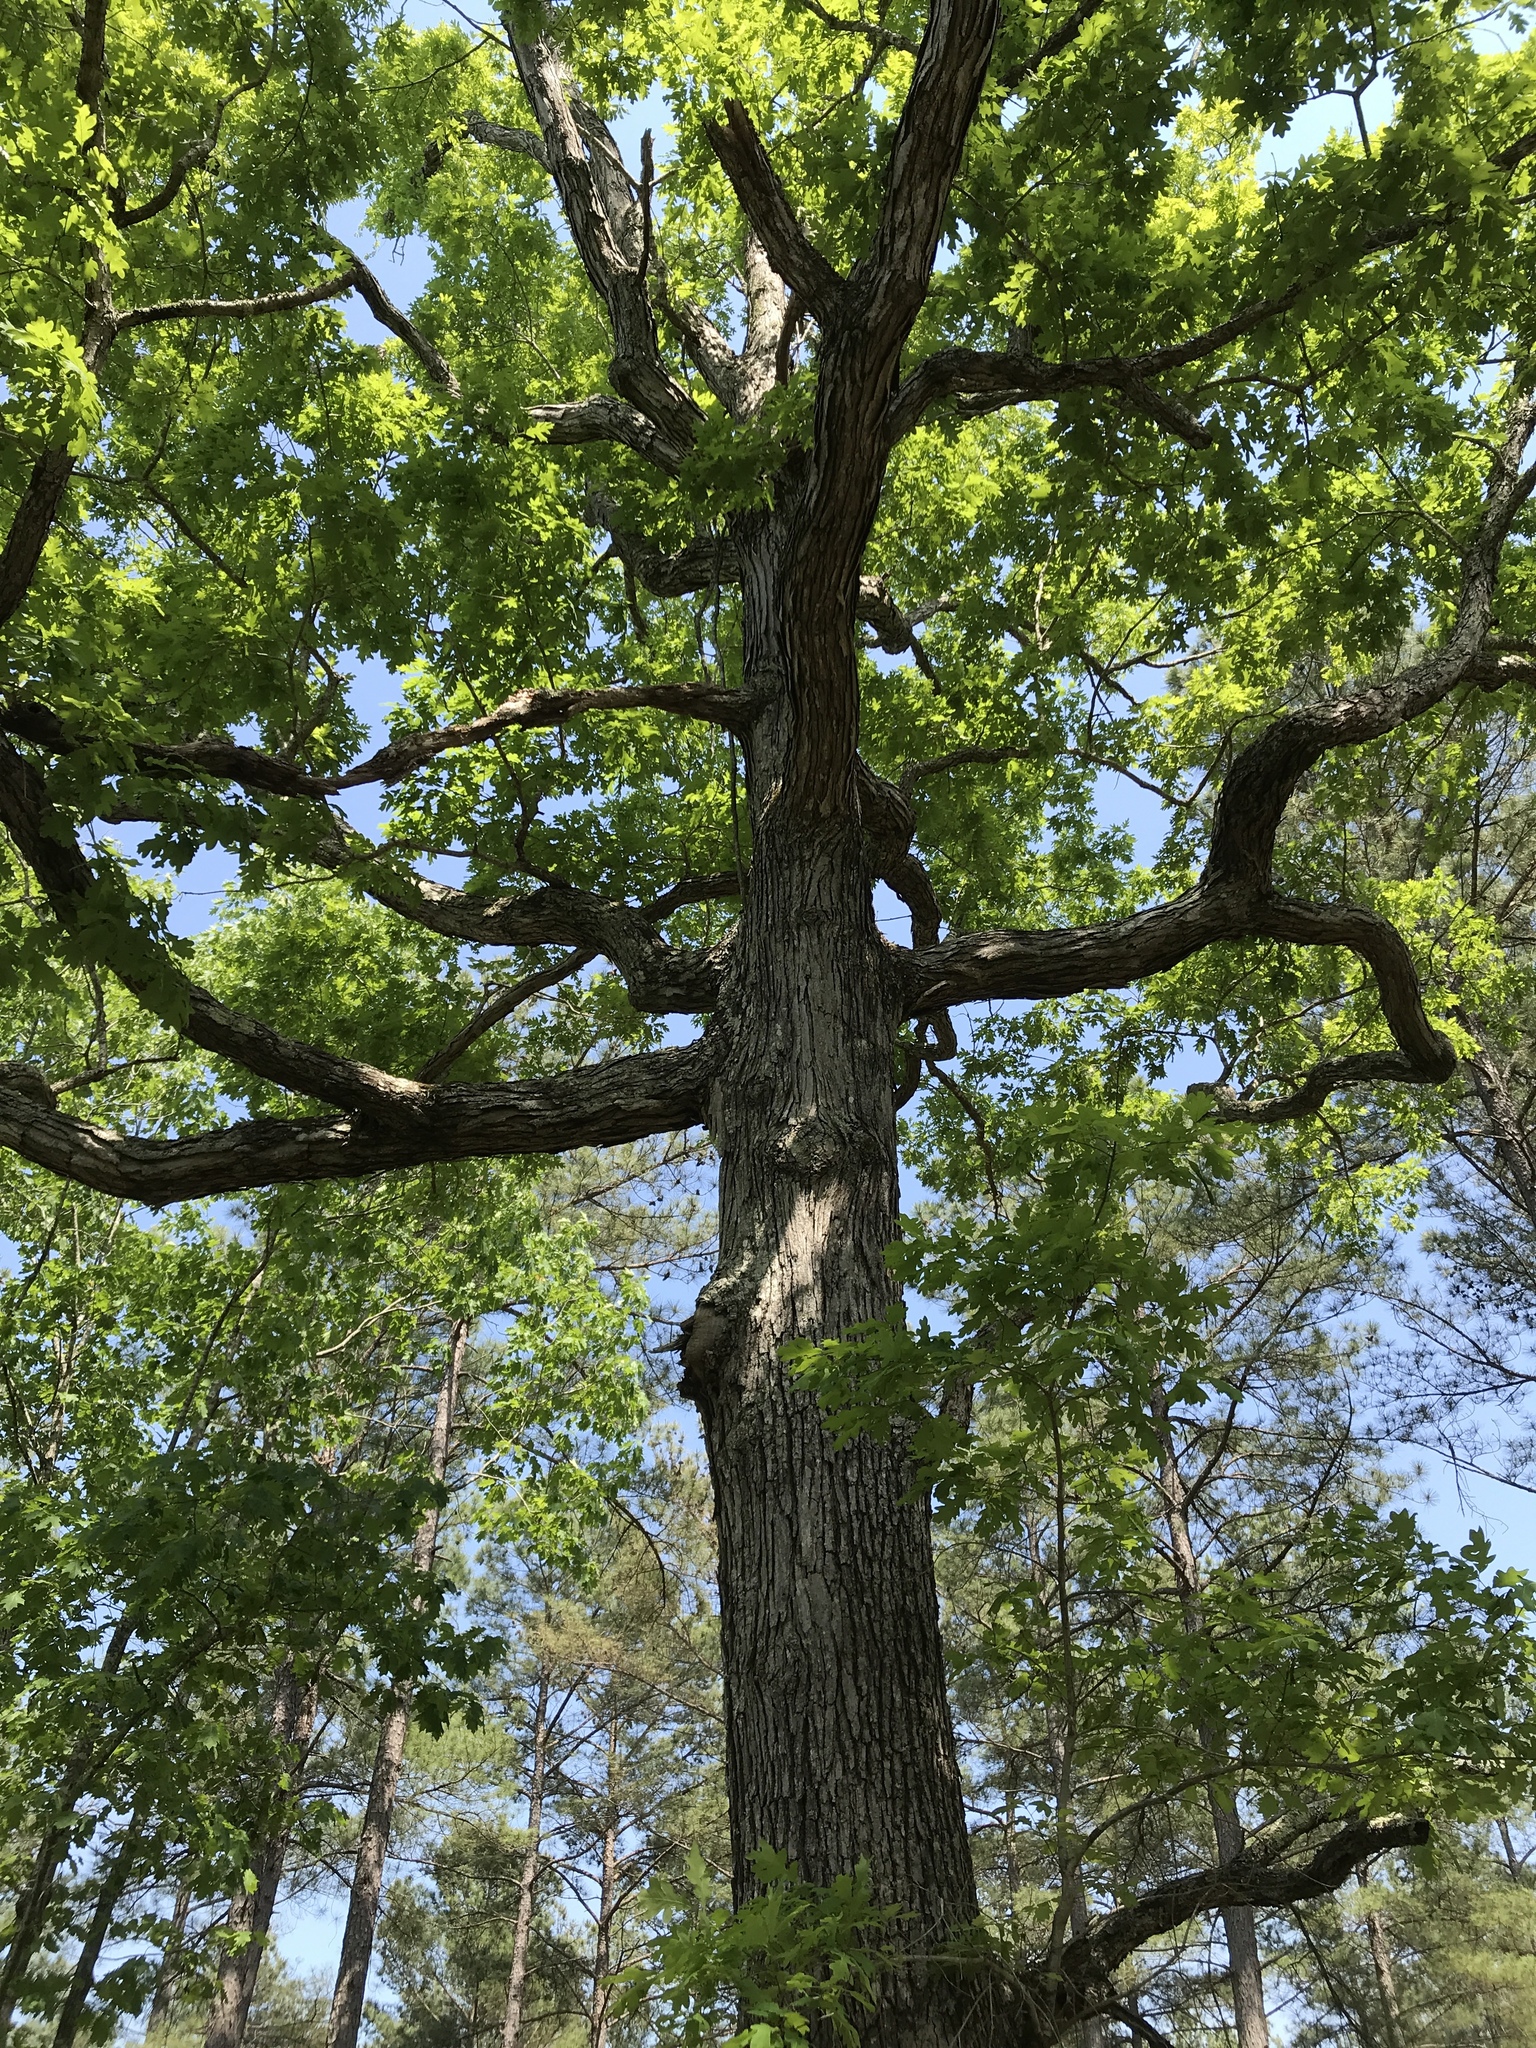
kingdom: Plantae
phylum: Tracheophyta
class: Magnoliopsida
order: Fagales
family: Fagaceae
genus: Quercus
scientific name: Quercus alba
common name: White oak
